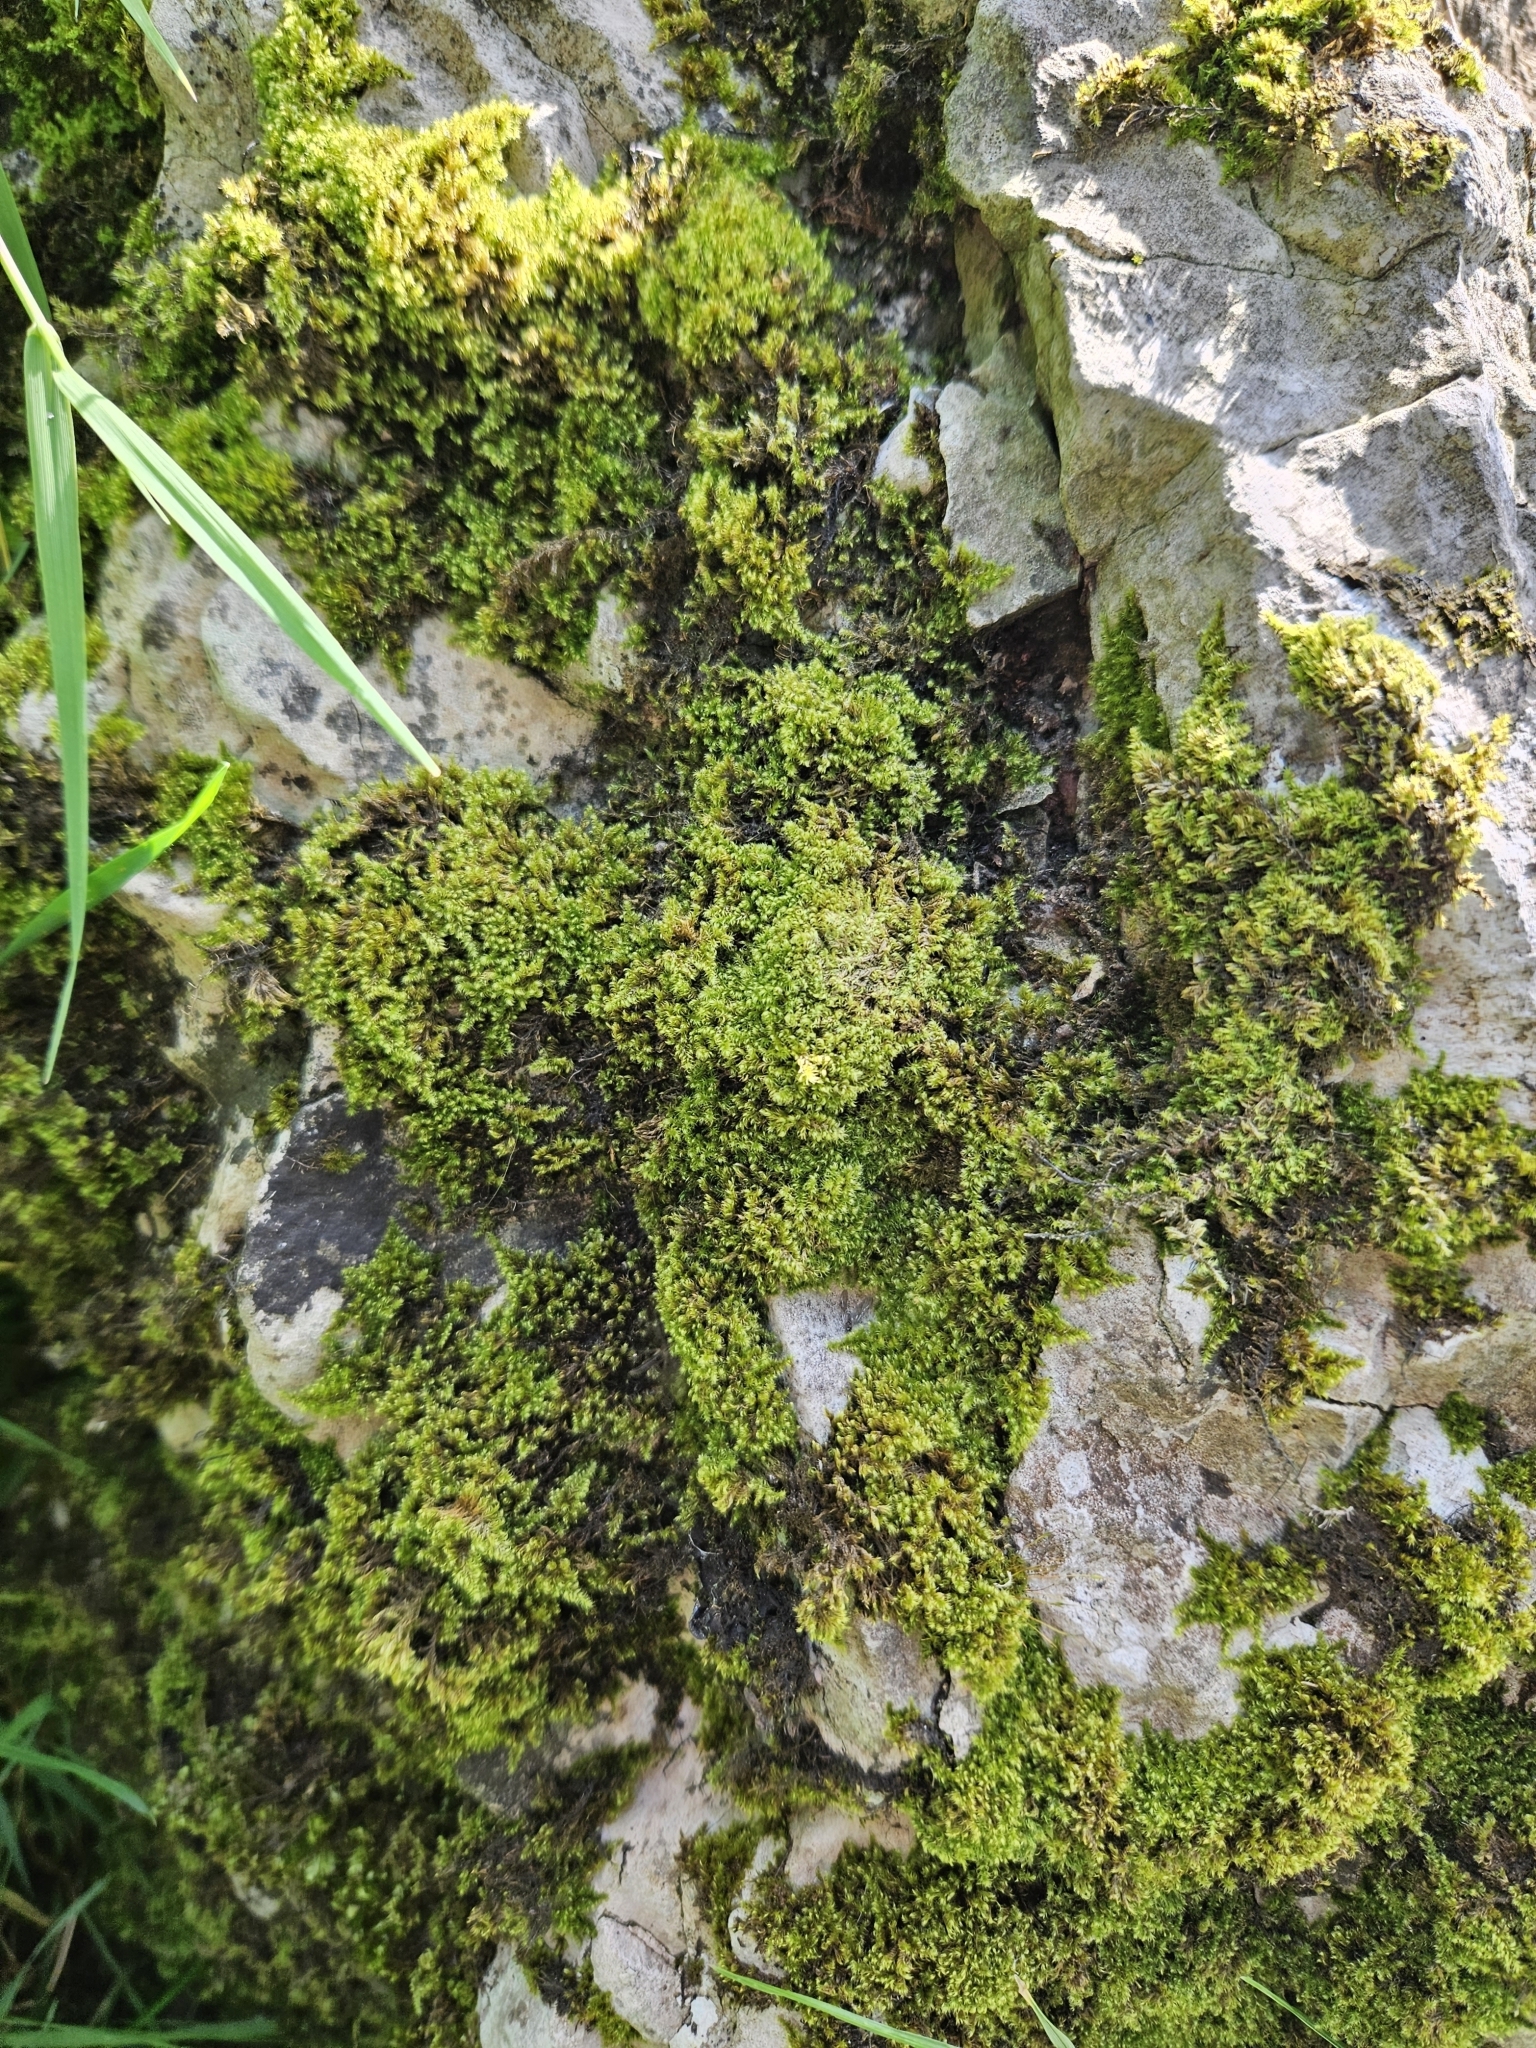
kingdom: Plantae
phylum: Bryophyta
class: Bryopsida
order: Hypnales
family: Myuriaceae
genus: Ctenidium
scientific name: Ctenidium molluscum
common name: Chalk comb-moss
